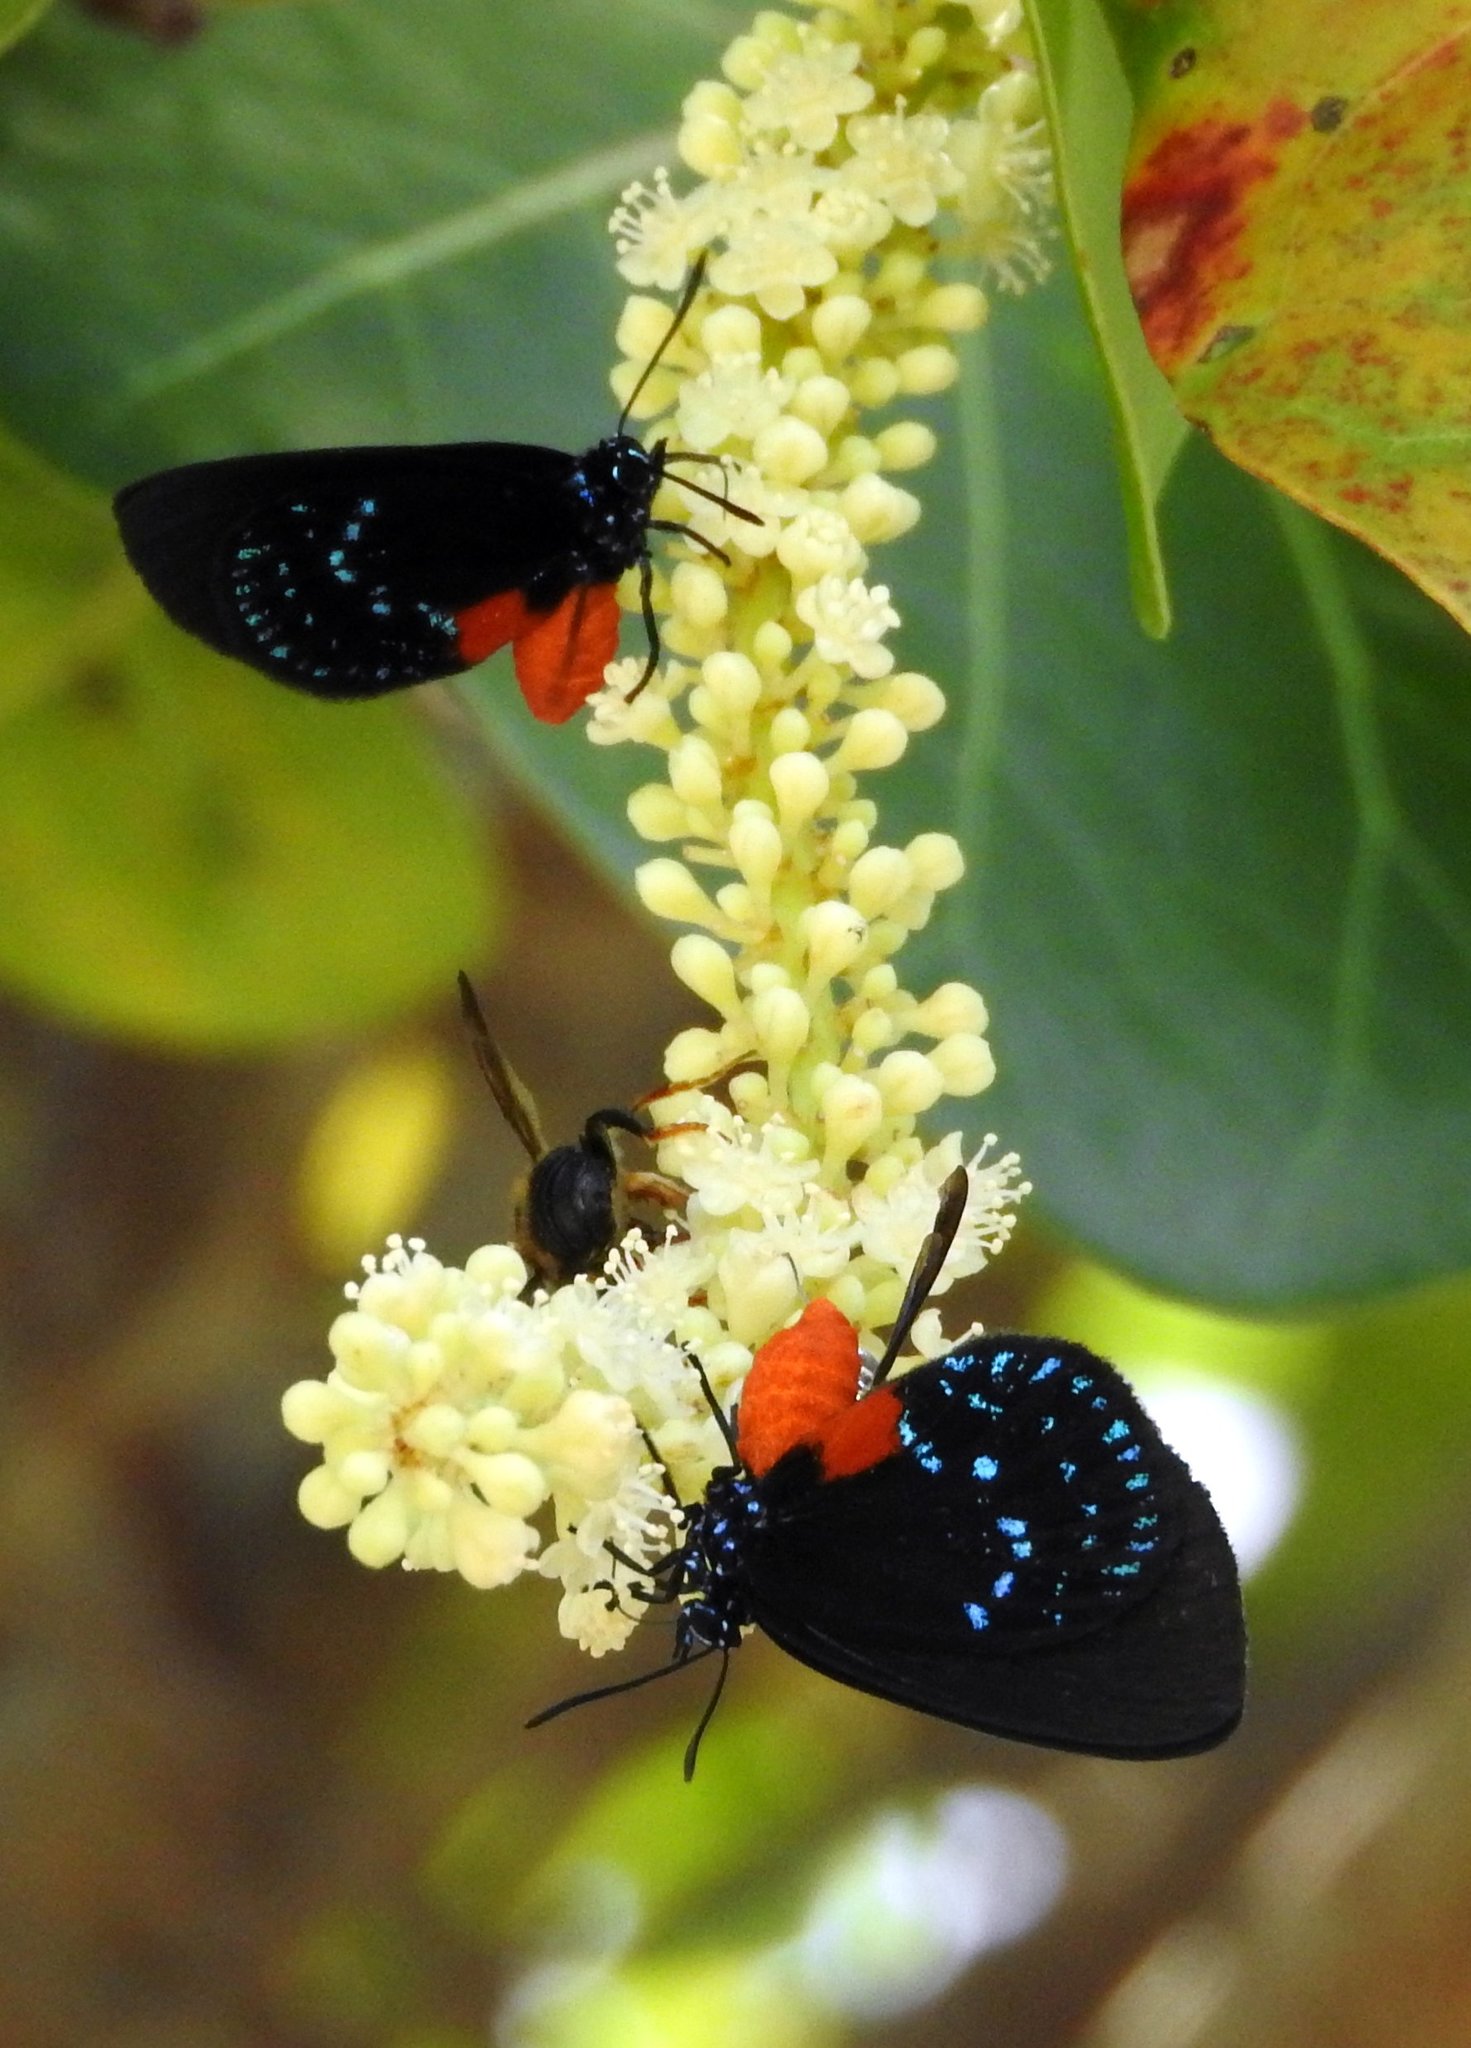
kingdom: Animalia
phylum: Arthropoda
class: Insecta
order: Lepidoptera
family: Lycaenidae
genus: Eumaeus
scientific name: Eumaeus atala
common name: Atala
